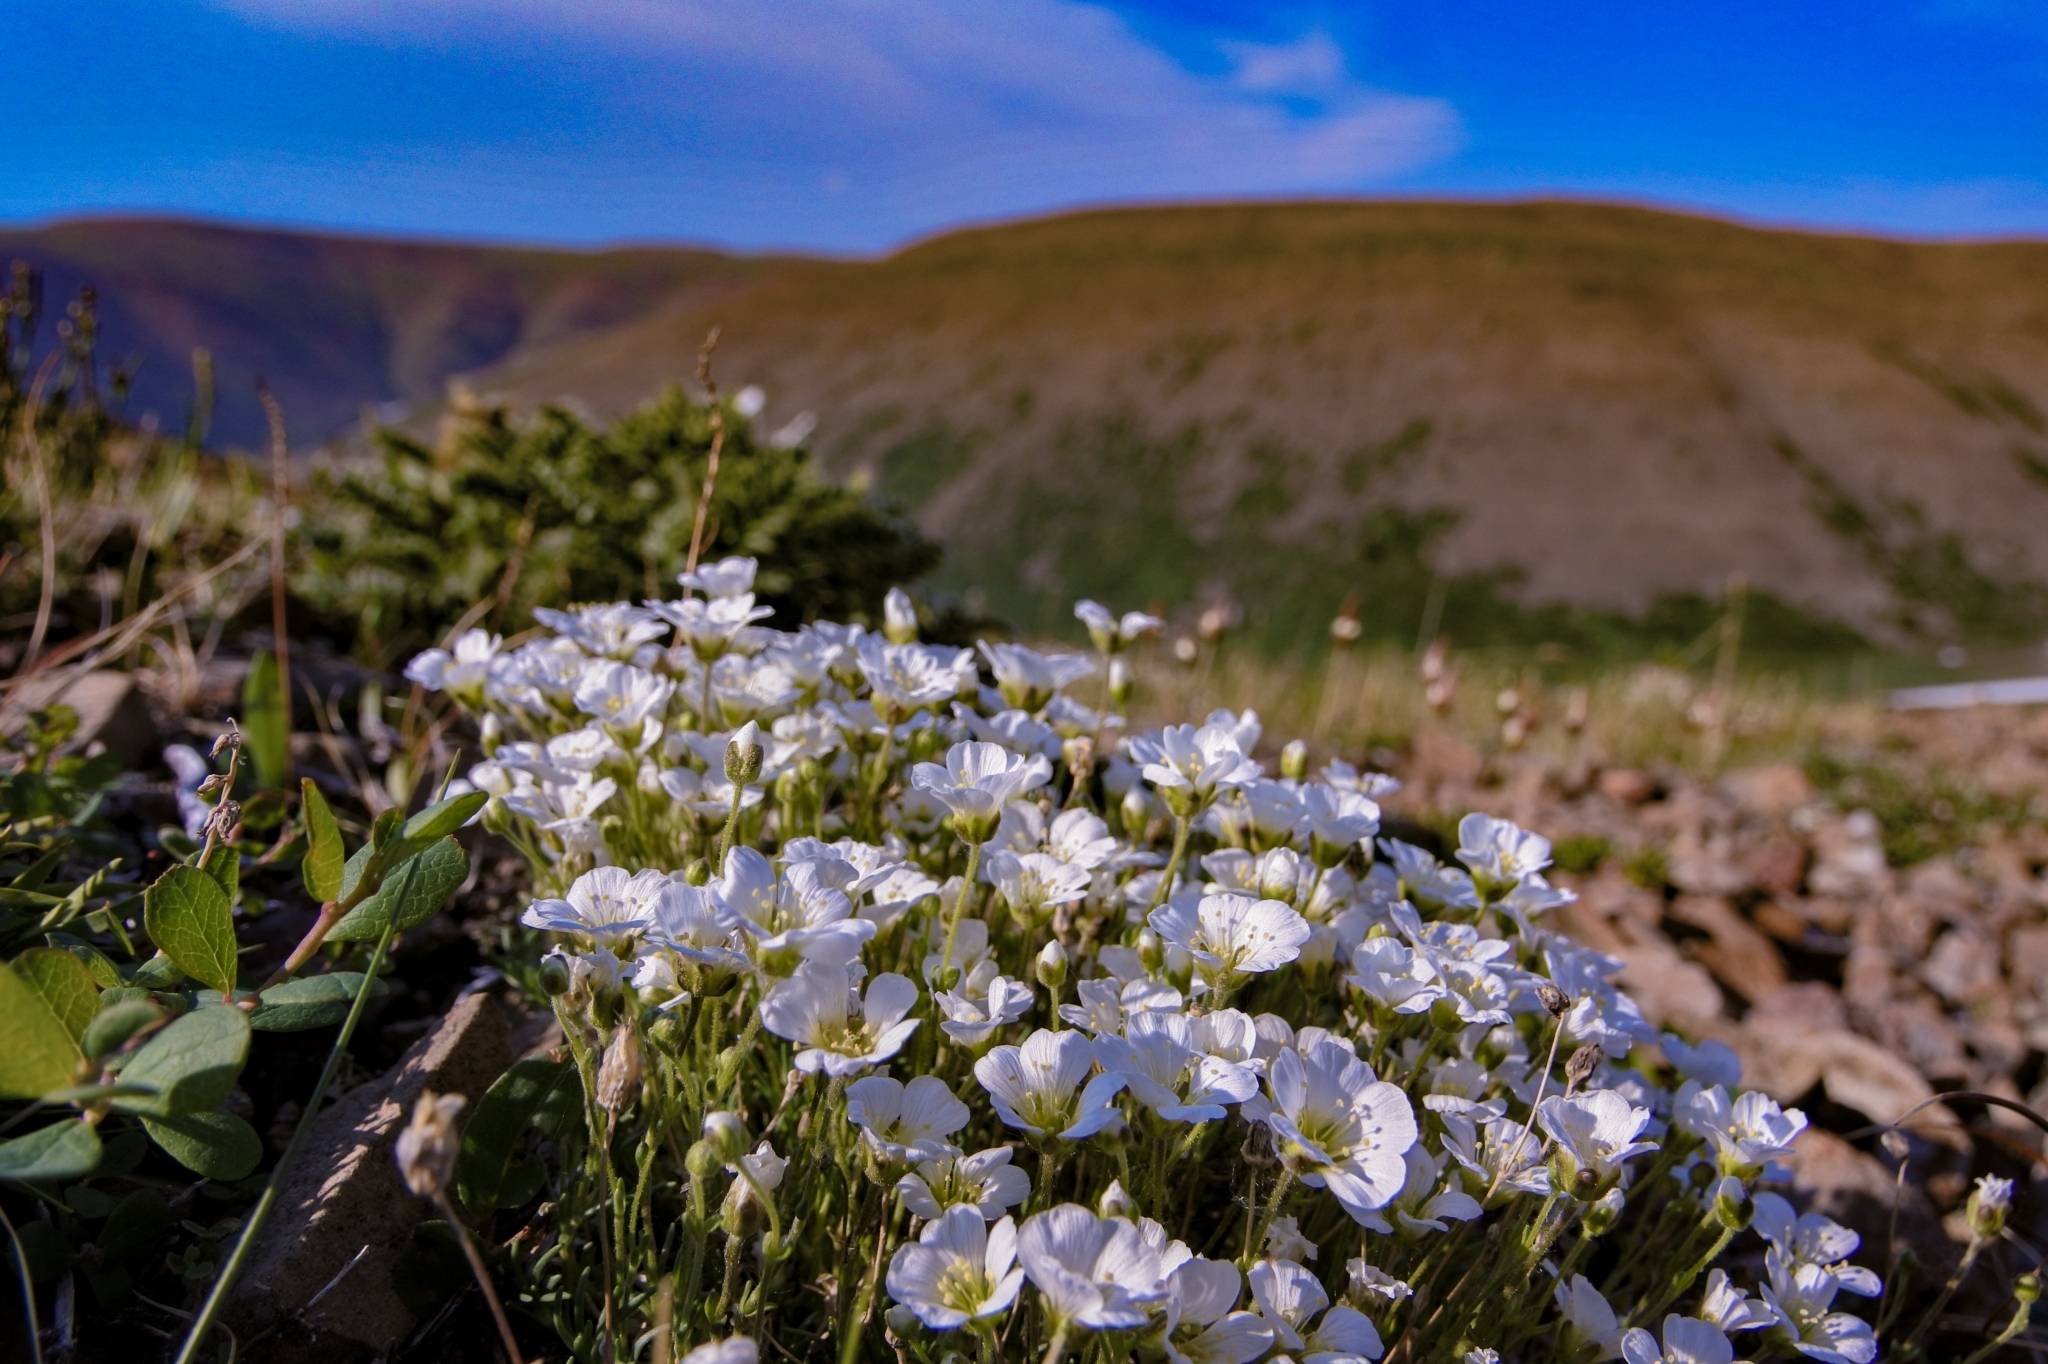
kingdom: Plantae
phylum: Tracheophyta
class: Magnoliopsida
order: Caryophyllales
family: Caryophyllaceae
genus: Cherleria
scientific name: Cherleria arctica
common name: Arctic sandwort
